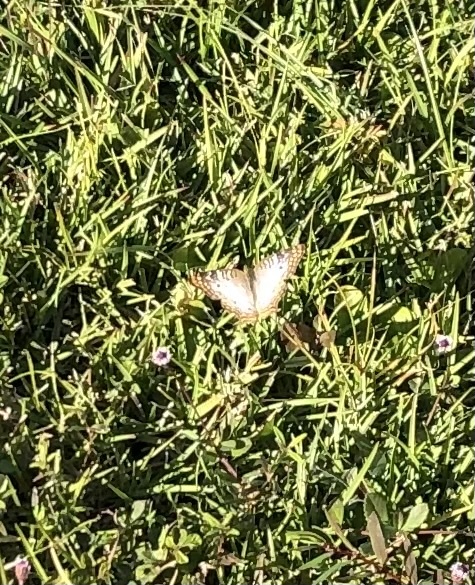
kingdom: Animalia
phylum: Arthropoda
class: Insecta
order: Lepidoptera
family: Nymphalidae
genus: Anartia
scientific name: Anartia jatrophae
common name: White peacock
